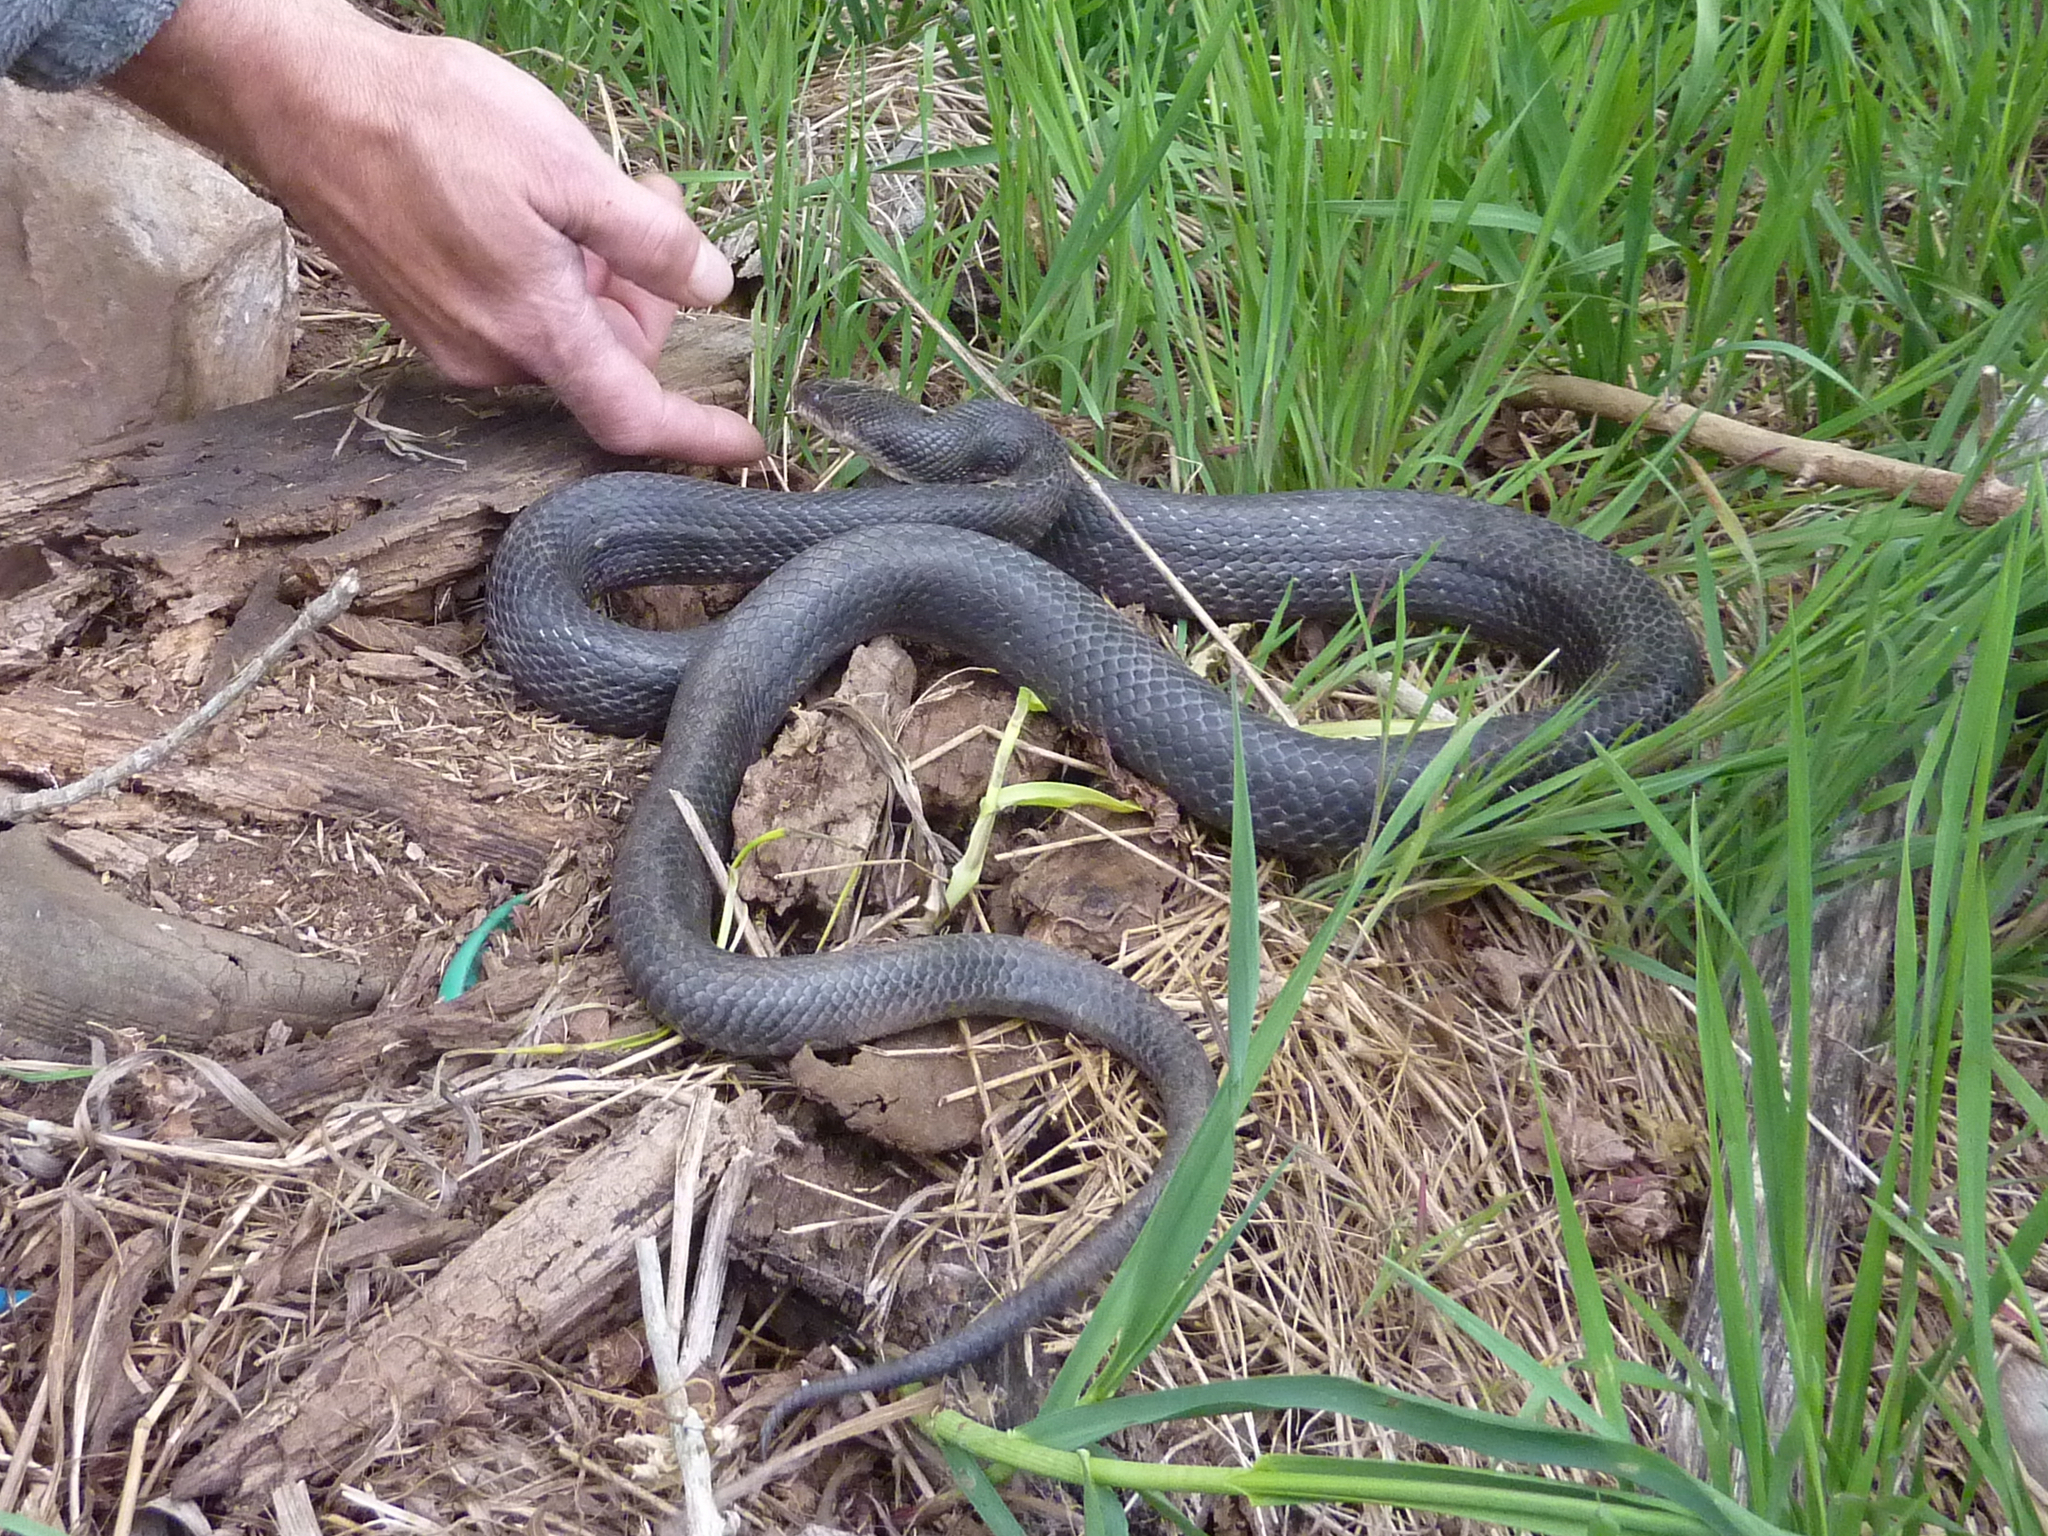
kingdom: Animalia
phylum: Chordata
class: Squamata
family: Colubridae
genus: Pantherophis
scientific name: Pantherophis alleghaniensis
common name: Eastern rat snake
